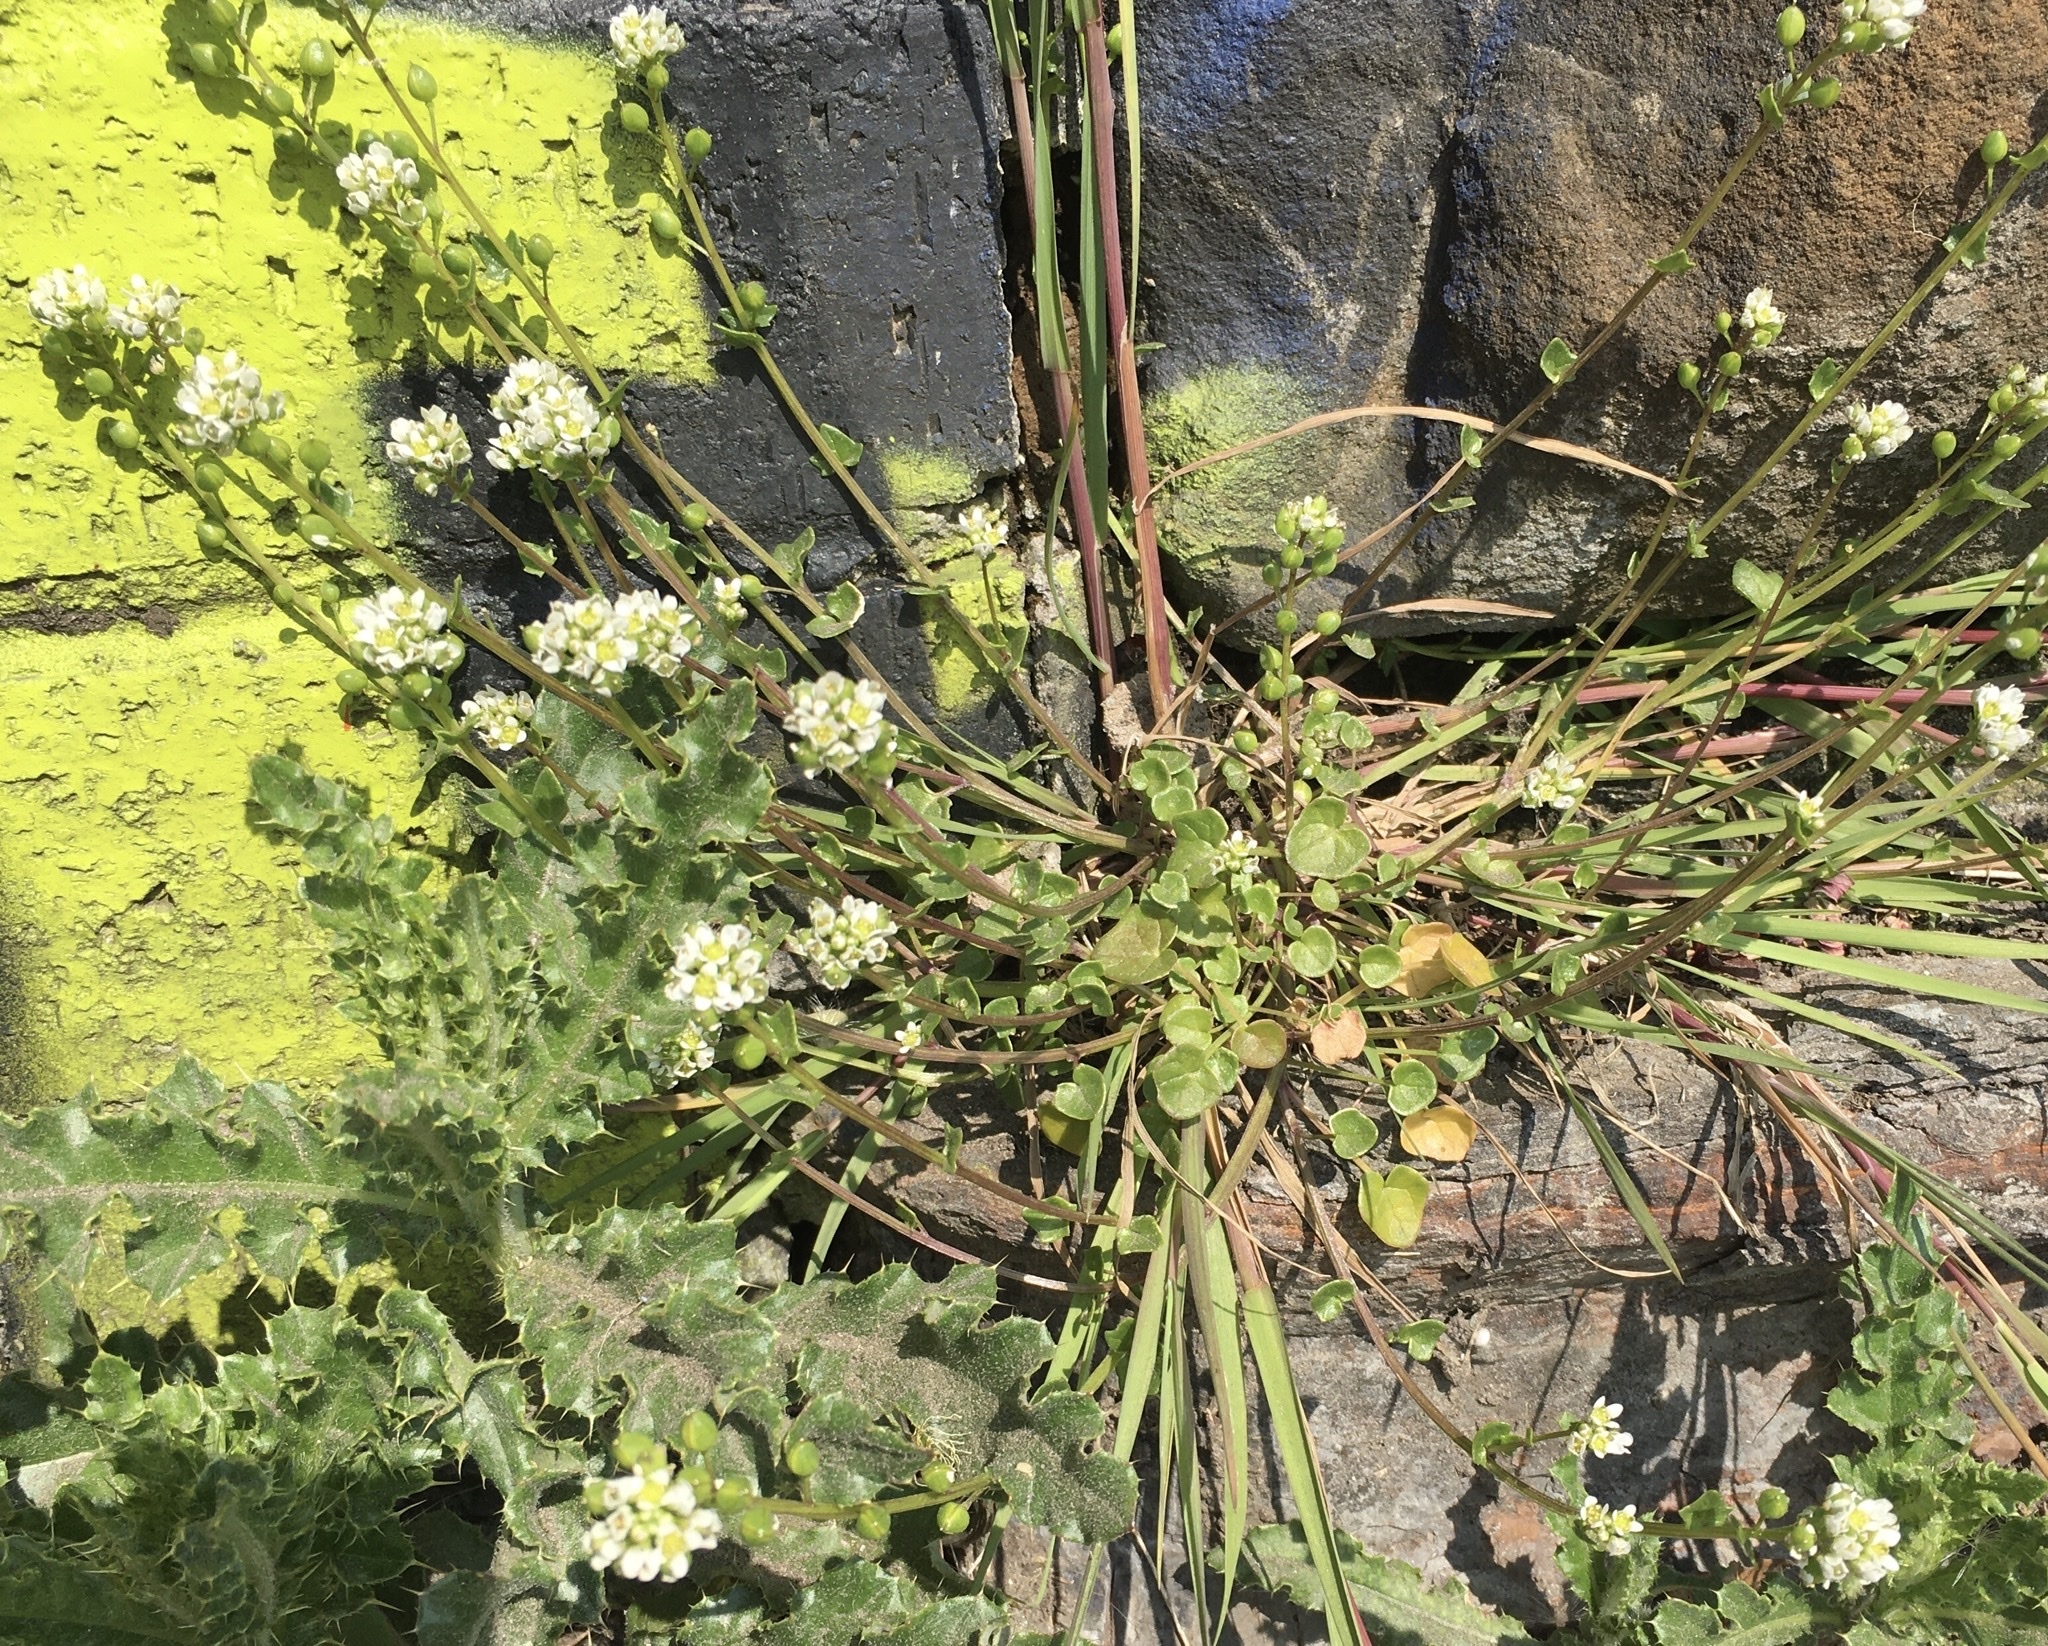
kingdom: Plantae
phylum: Tracheophyta
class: Magnoliopsida
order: Brassicales
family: Brassicaceae
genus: Cochlearia
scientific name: Cochlearia danica
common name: Early scurvygrass
